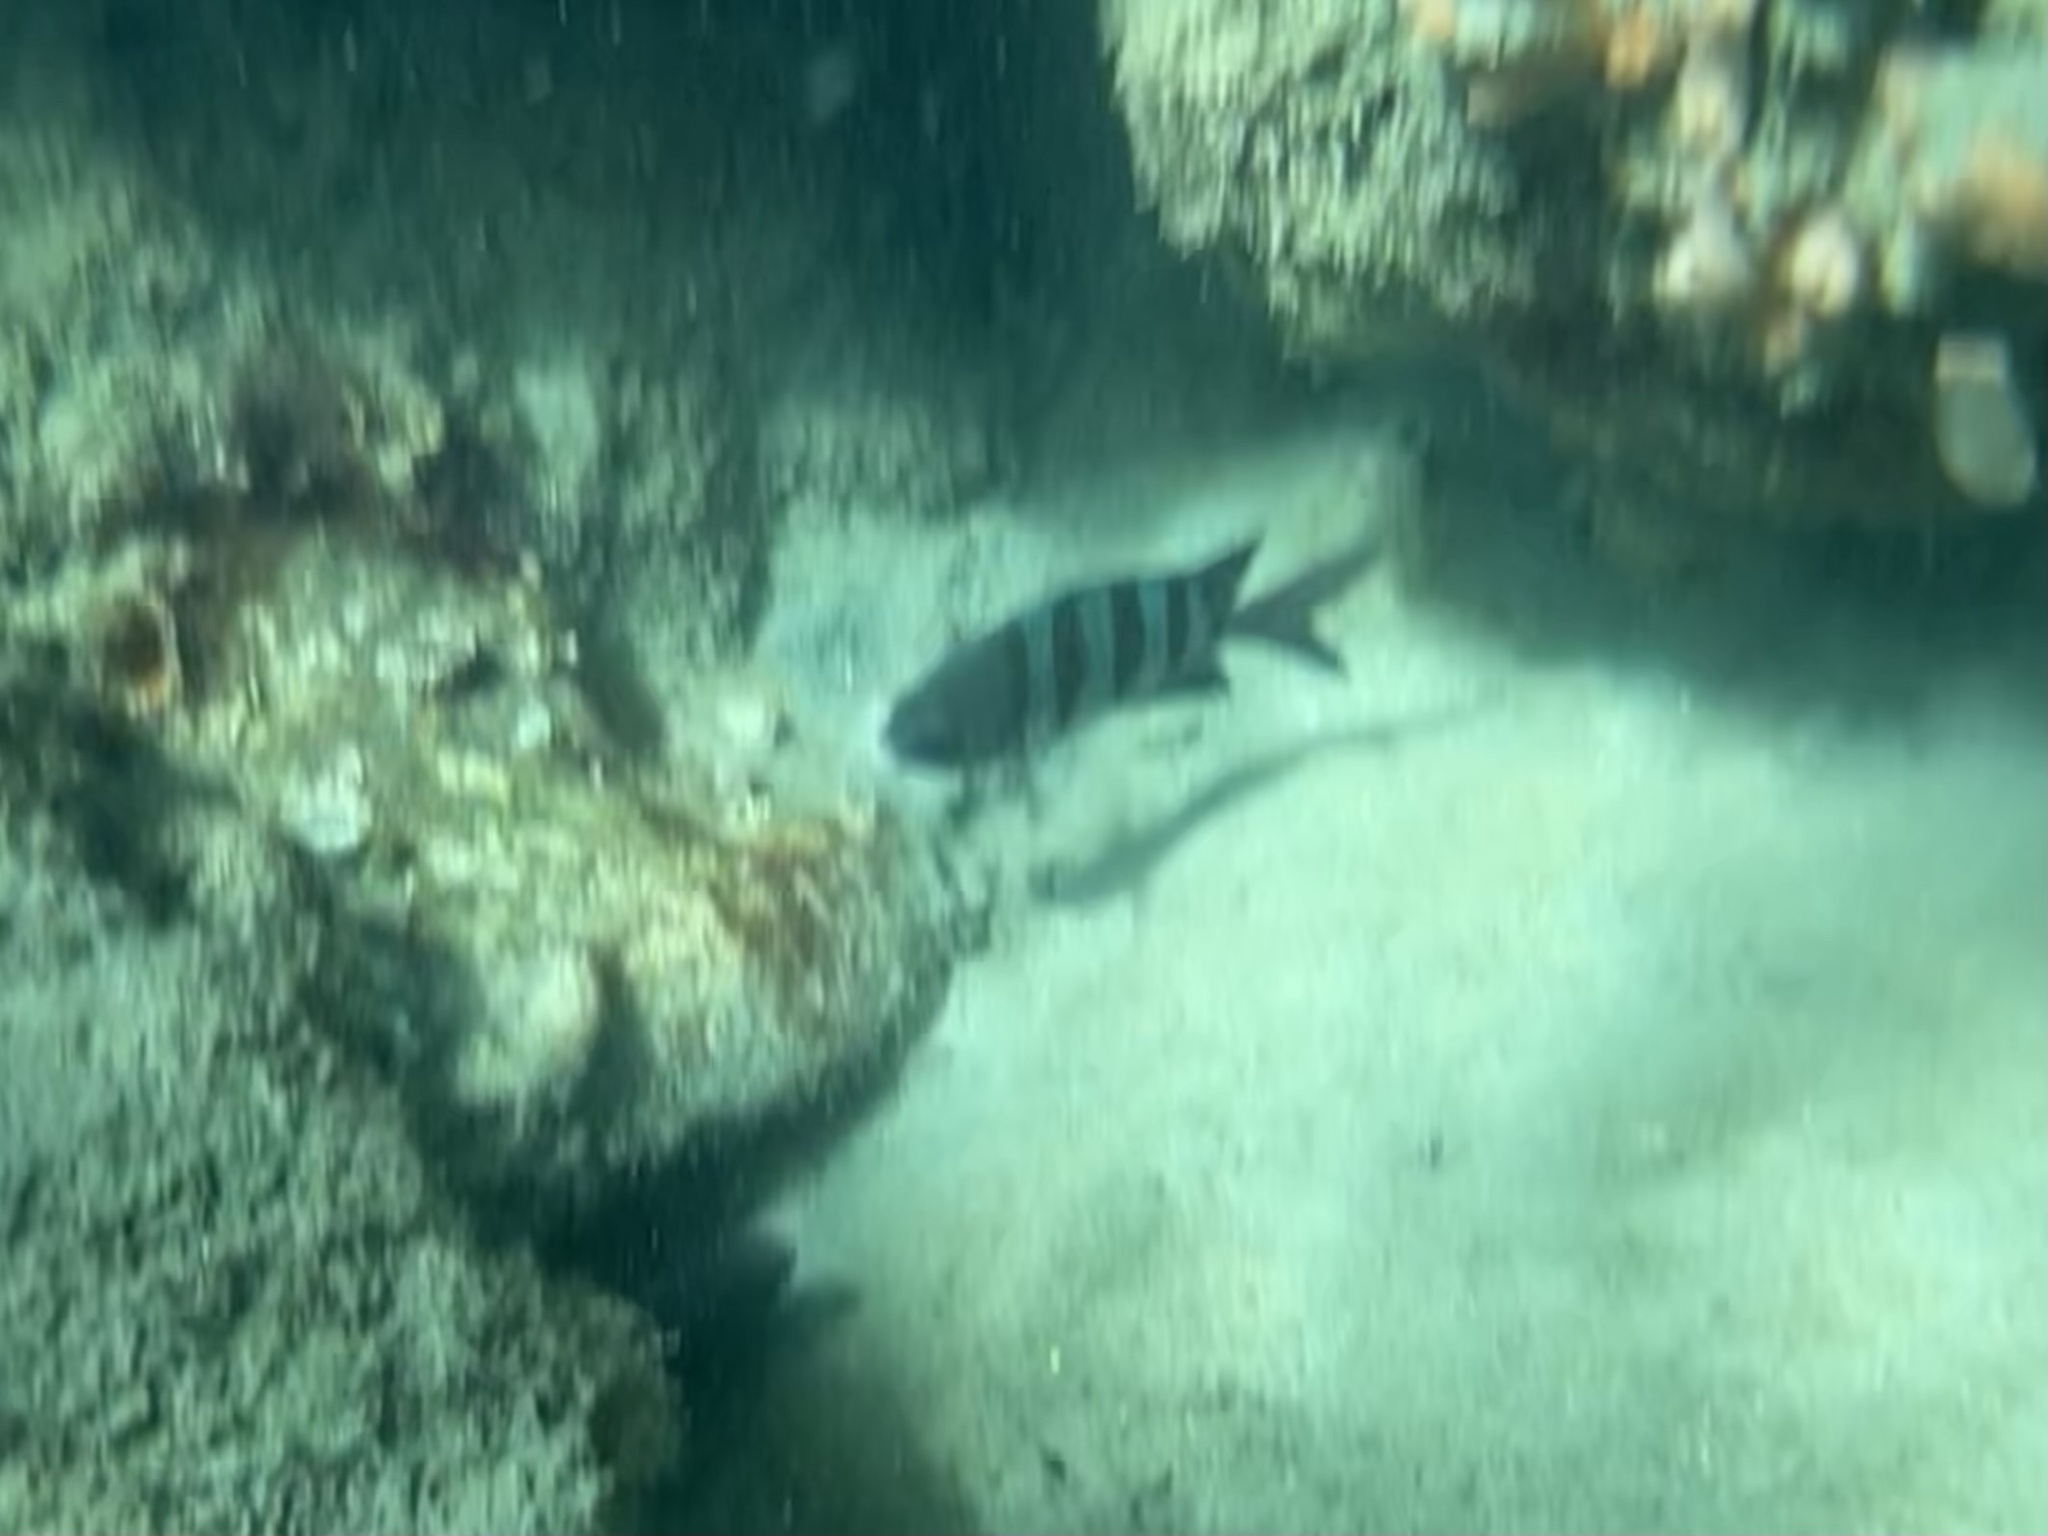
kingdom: Animalia
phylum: Chordata
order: Perciformes
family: Pomacentridae
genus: Abudefduf
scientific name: Abudefduf saxatilis
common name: Sergeant major
